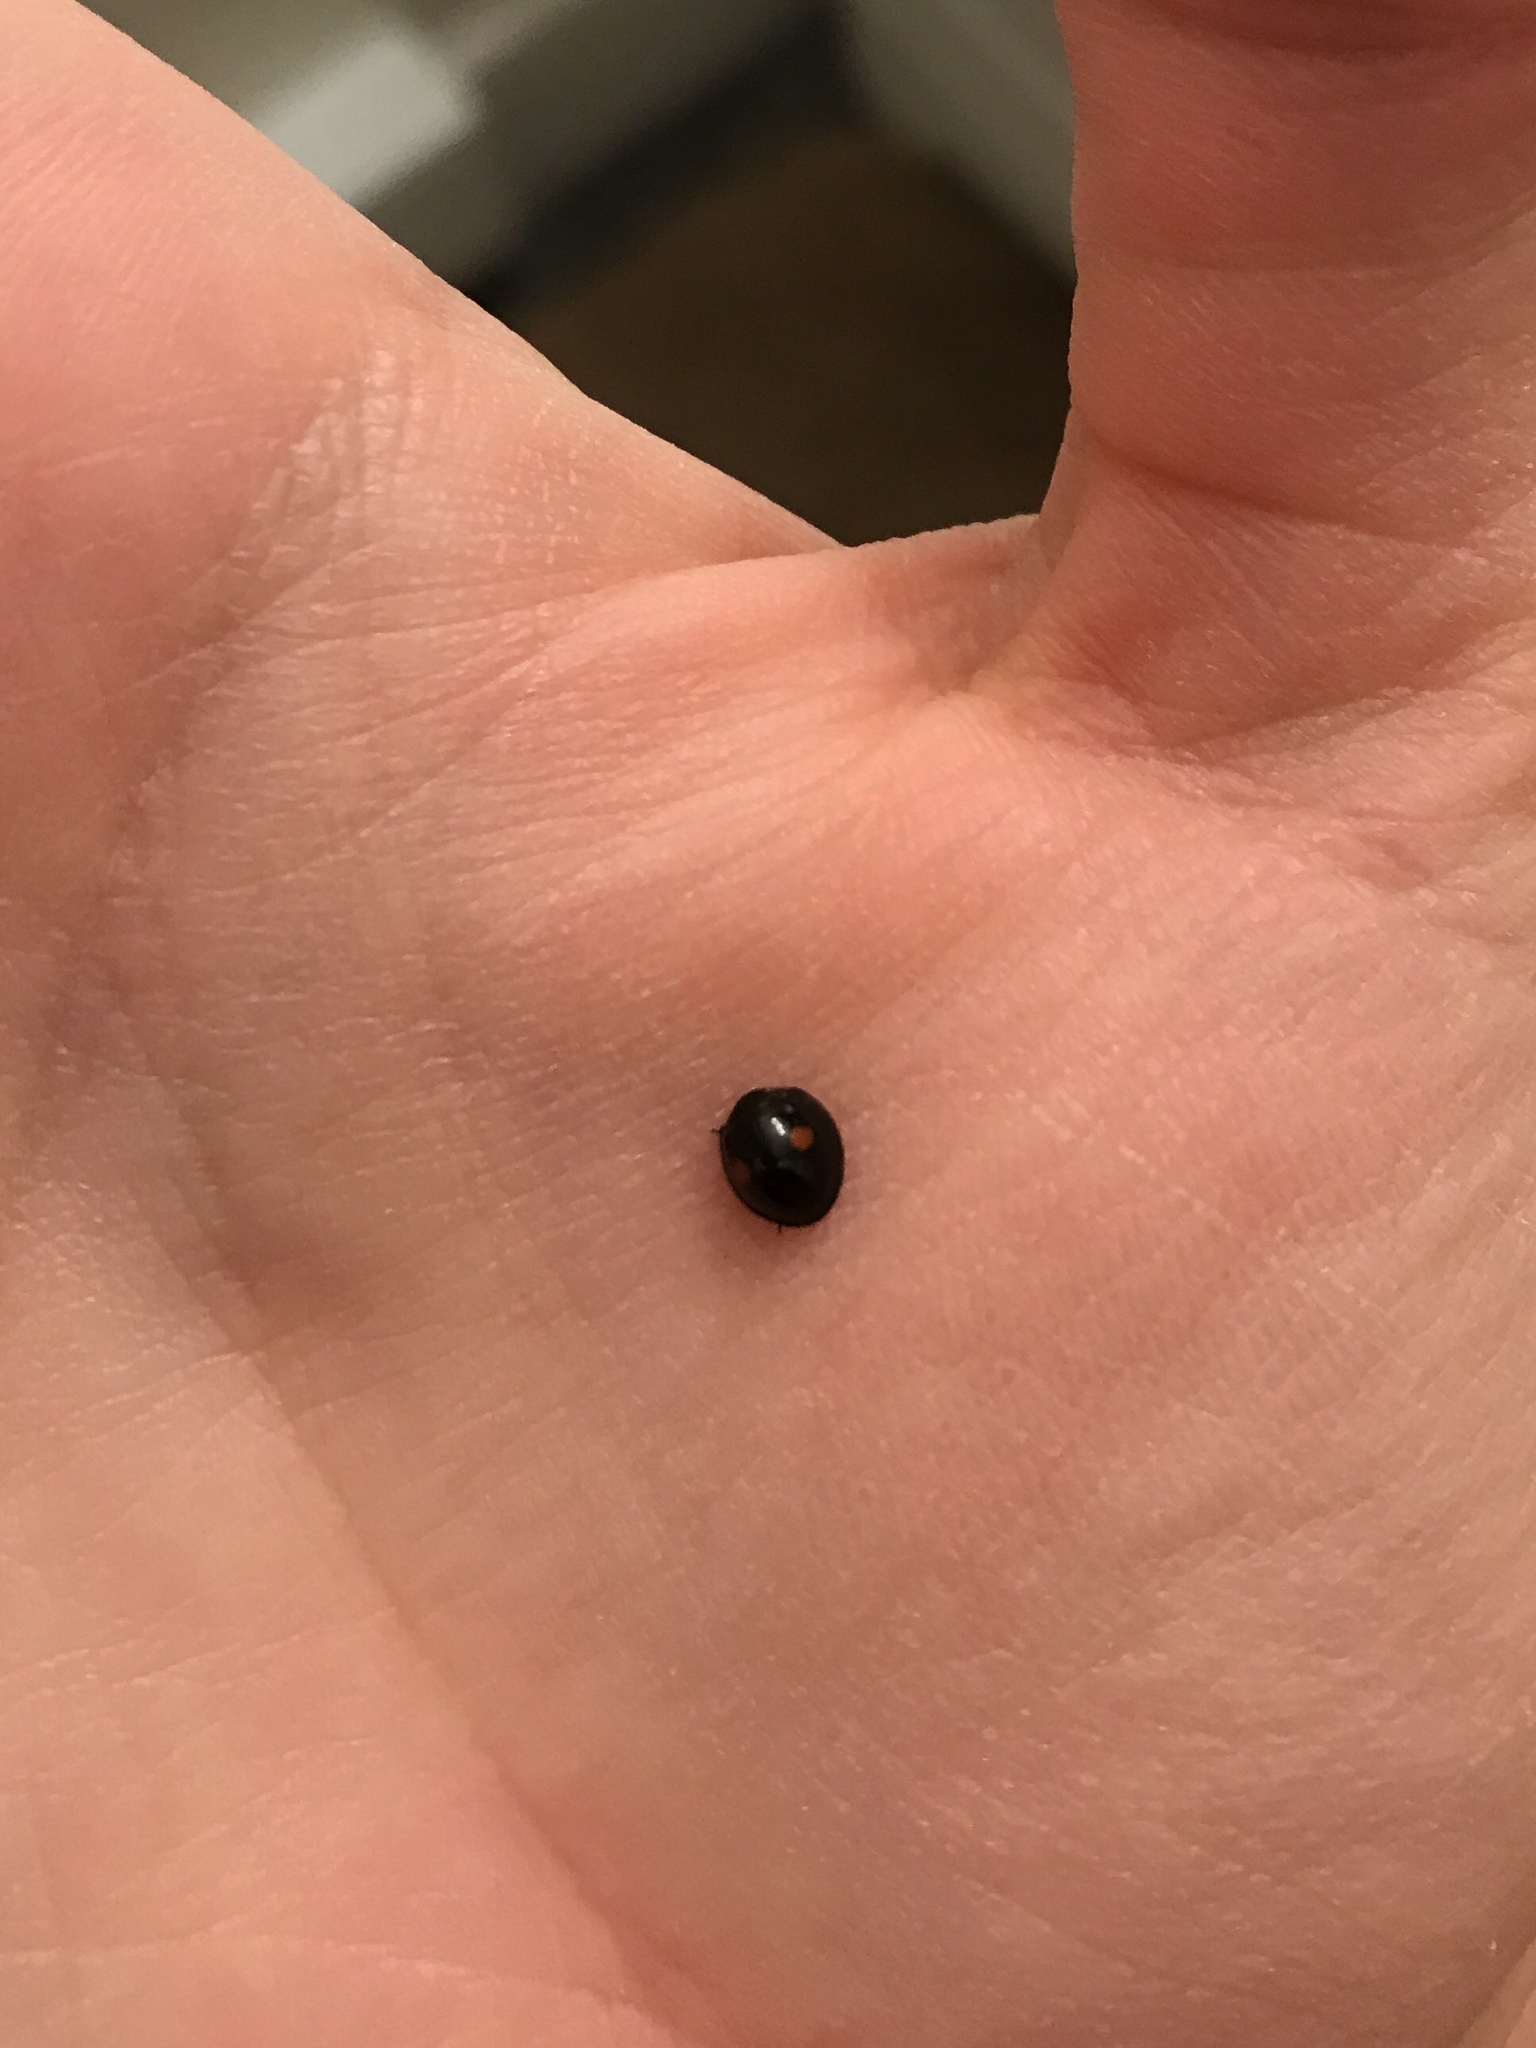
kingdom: Animalia
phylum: Arthropoda
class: Insecta
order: Coleoptera
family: Coccinellidae
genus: Chilocorus
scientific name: Chilocorus stigma
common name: Twicestabbed lady beetle
